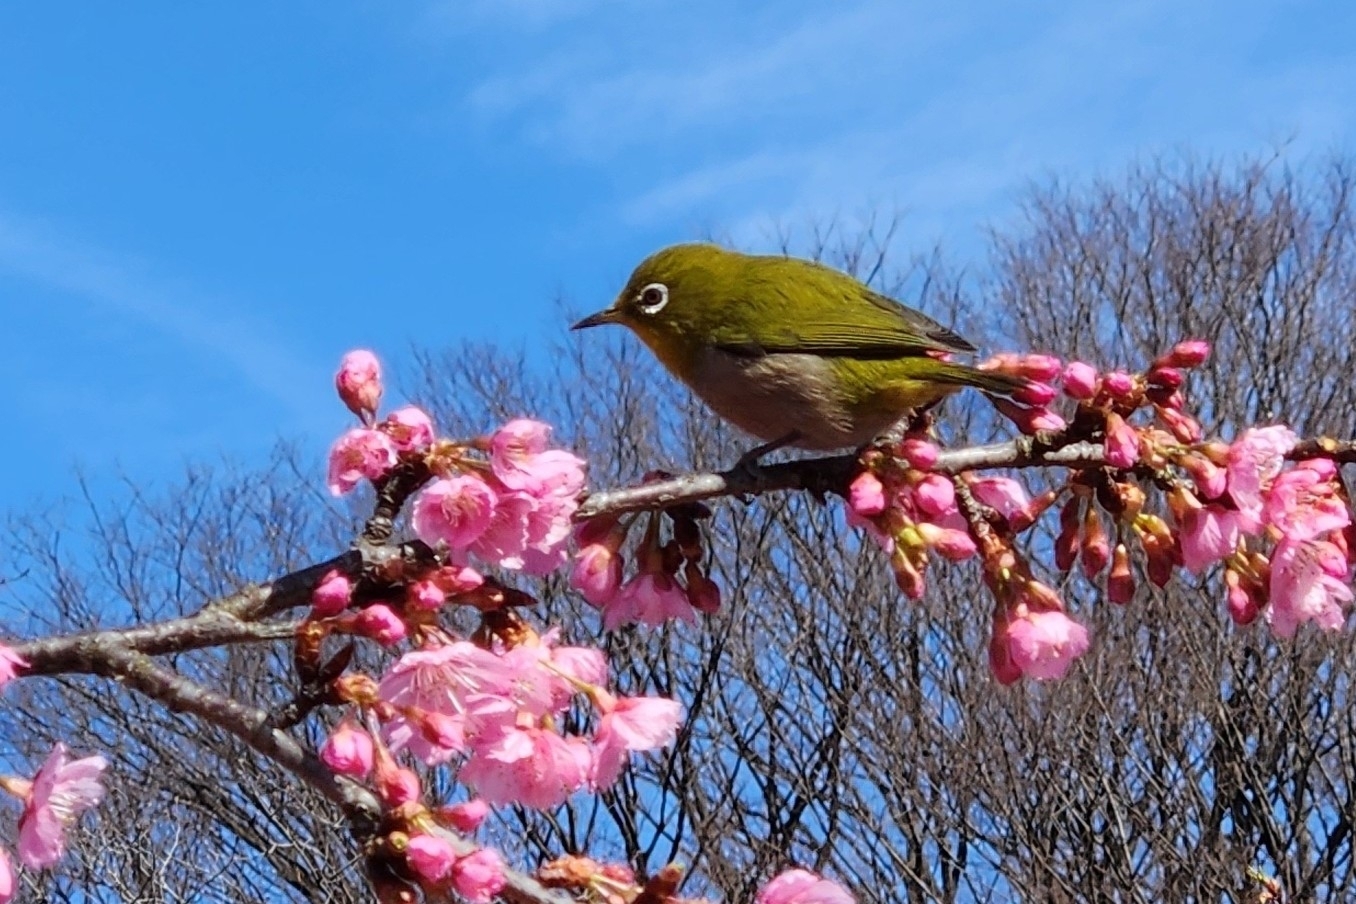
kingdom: Animalia
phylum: Chordata
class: Aves
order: Passeriformes
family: Zosteropidae
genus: Zosterops
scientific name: Zosterops japonicus
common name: Japanese white-eye
